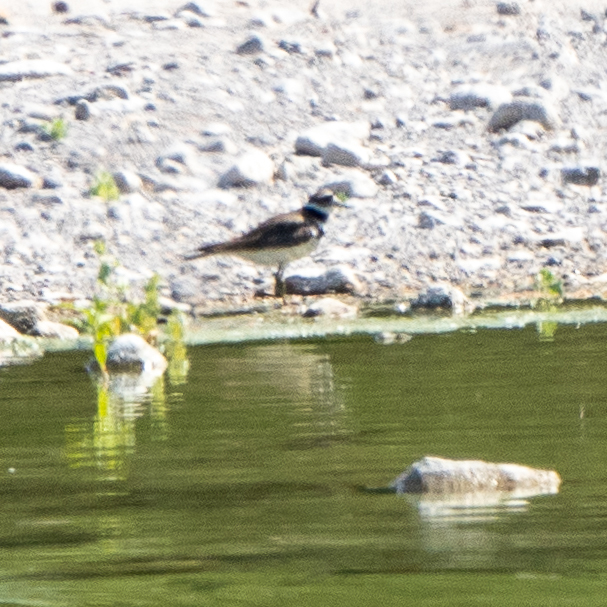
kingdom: Animalia
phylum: Chordata
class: Aves
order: Charadriiformes
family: Charadriidae
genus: Charadrius
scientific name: Charadrius vociferus
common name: Killdeer
